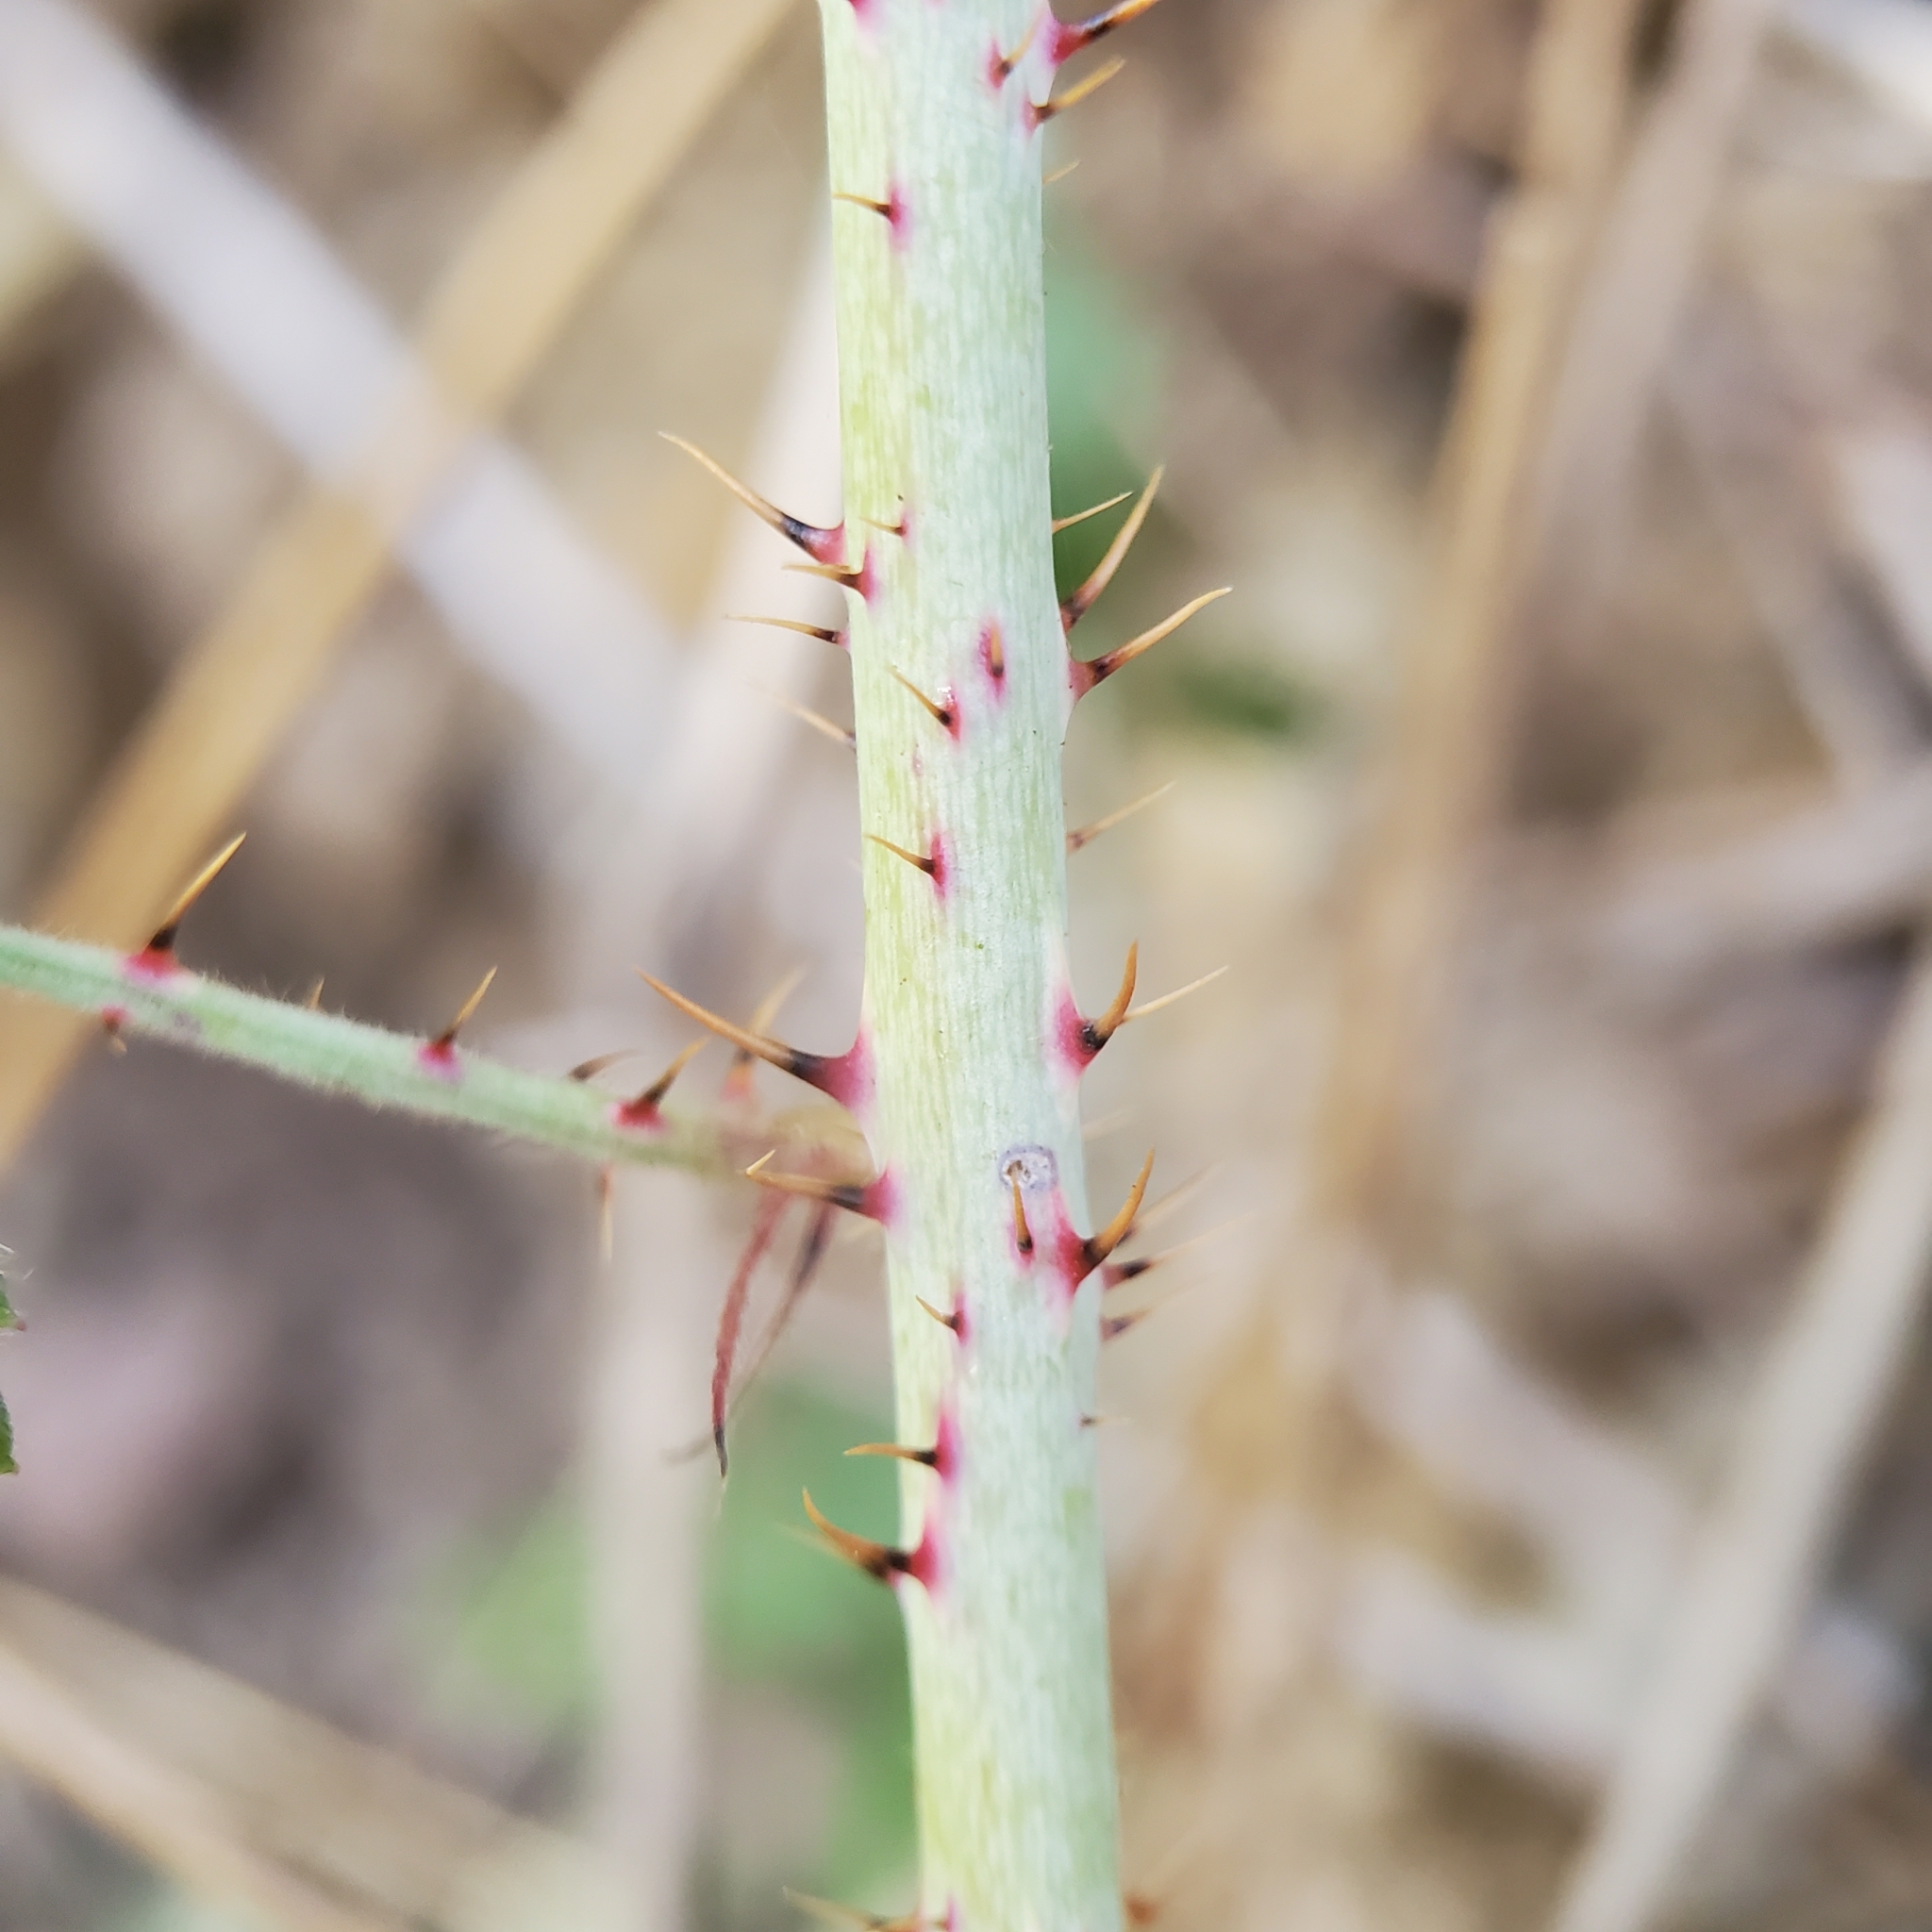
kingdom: Plantae
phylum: Tracheophyta
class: Magnoliopsida
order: Rosales
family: Rosaceae
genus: Rubus
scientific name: Rubus ursinus
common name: Pacific blackberry
